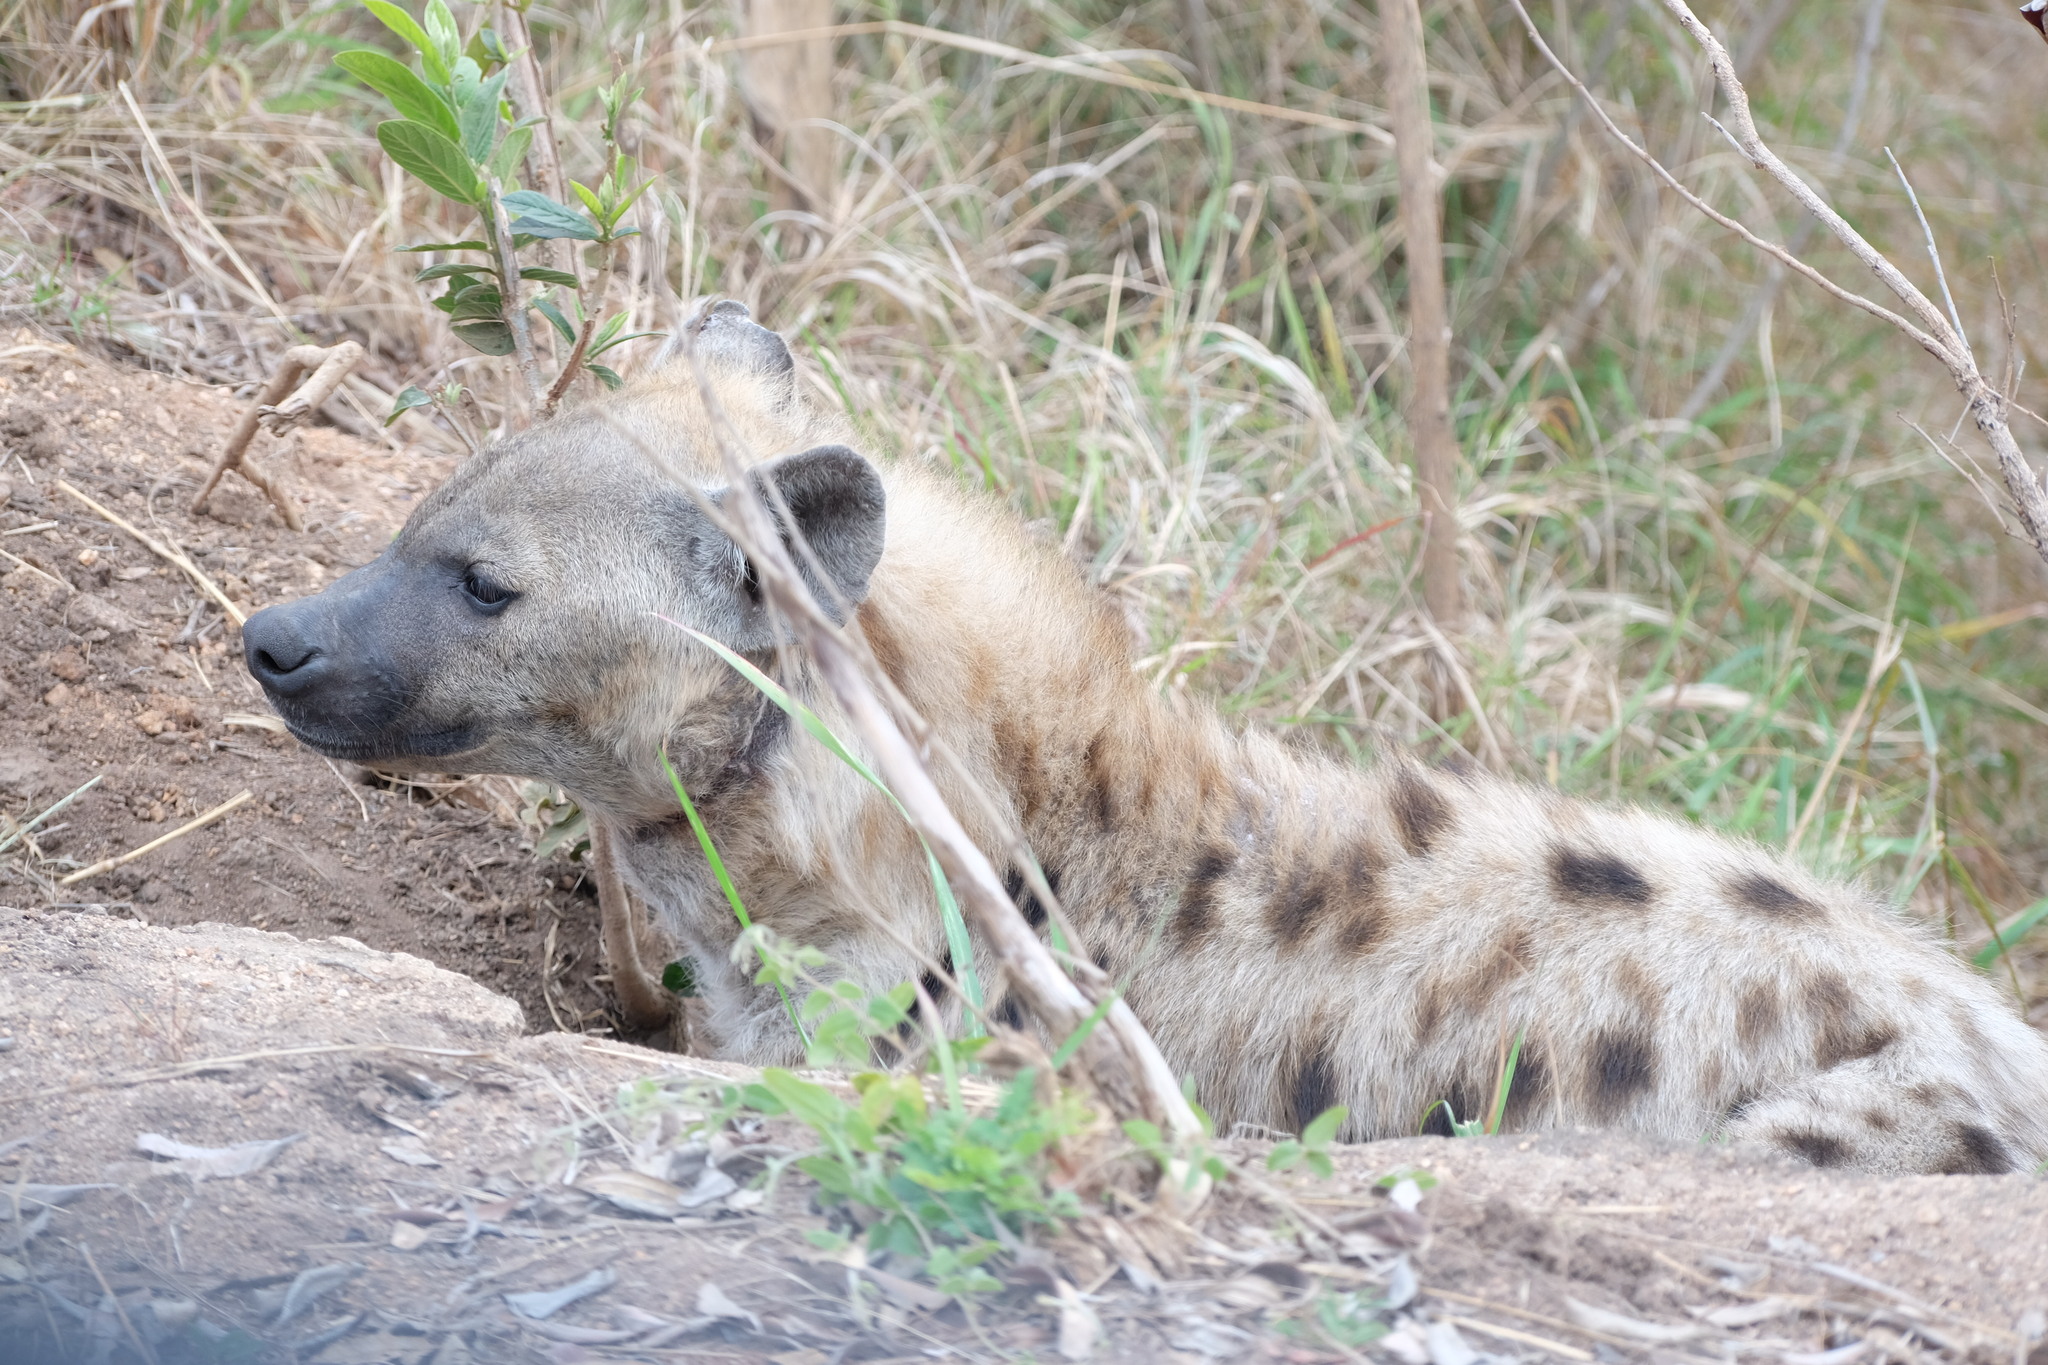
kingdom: Animalia
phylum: Chordata
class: Mammalia
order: Carnivora
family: Hyaenidae
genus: Crocuta
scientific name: Crocuta crocuta
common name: Spotted hyaena
